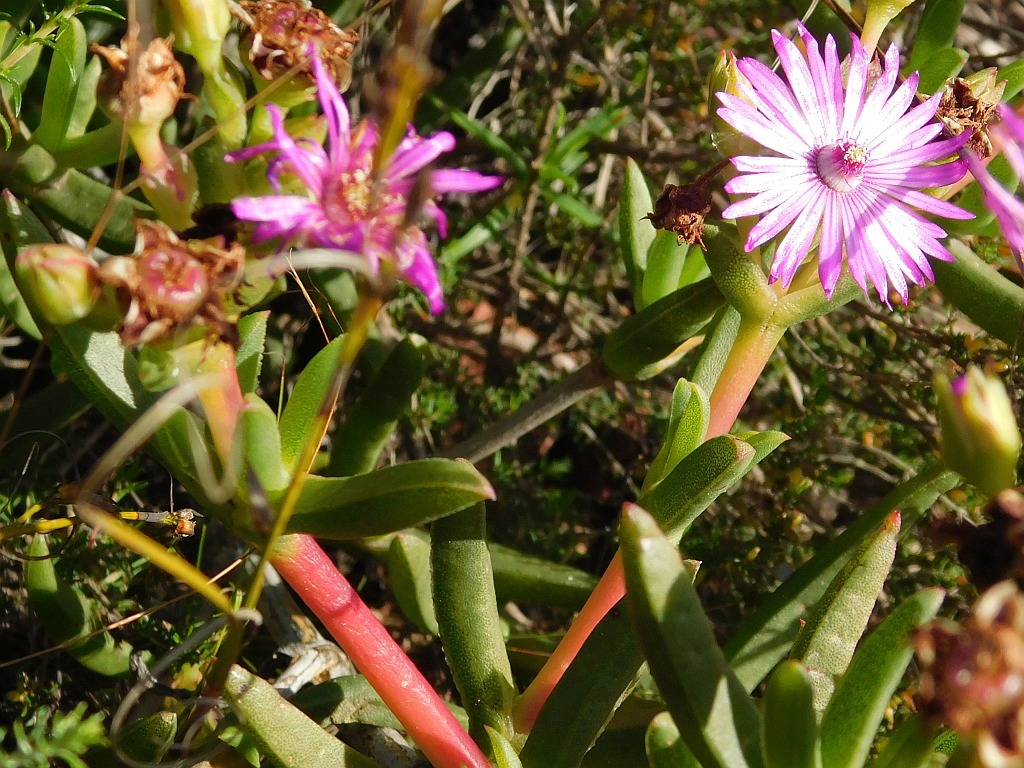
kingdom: Plantae
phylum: Tracheophyta
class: Magnoliopsida
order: Caryophyllales
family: Aizoaceae
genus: Ruschia
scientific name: Ruschia schollii
